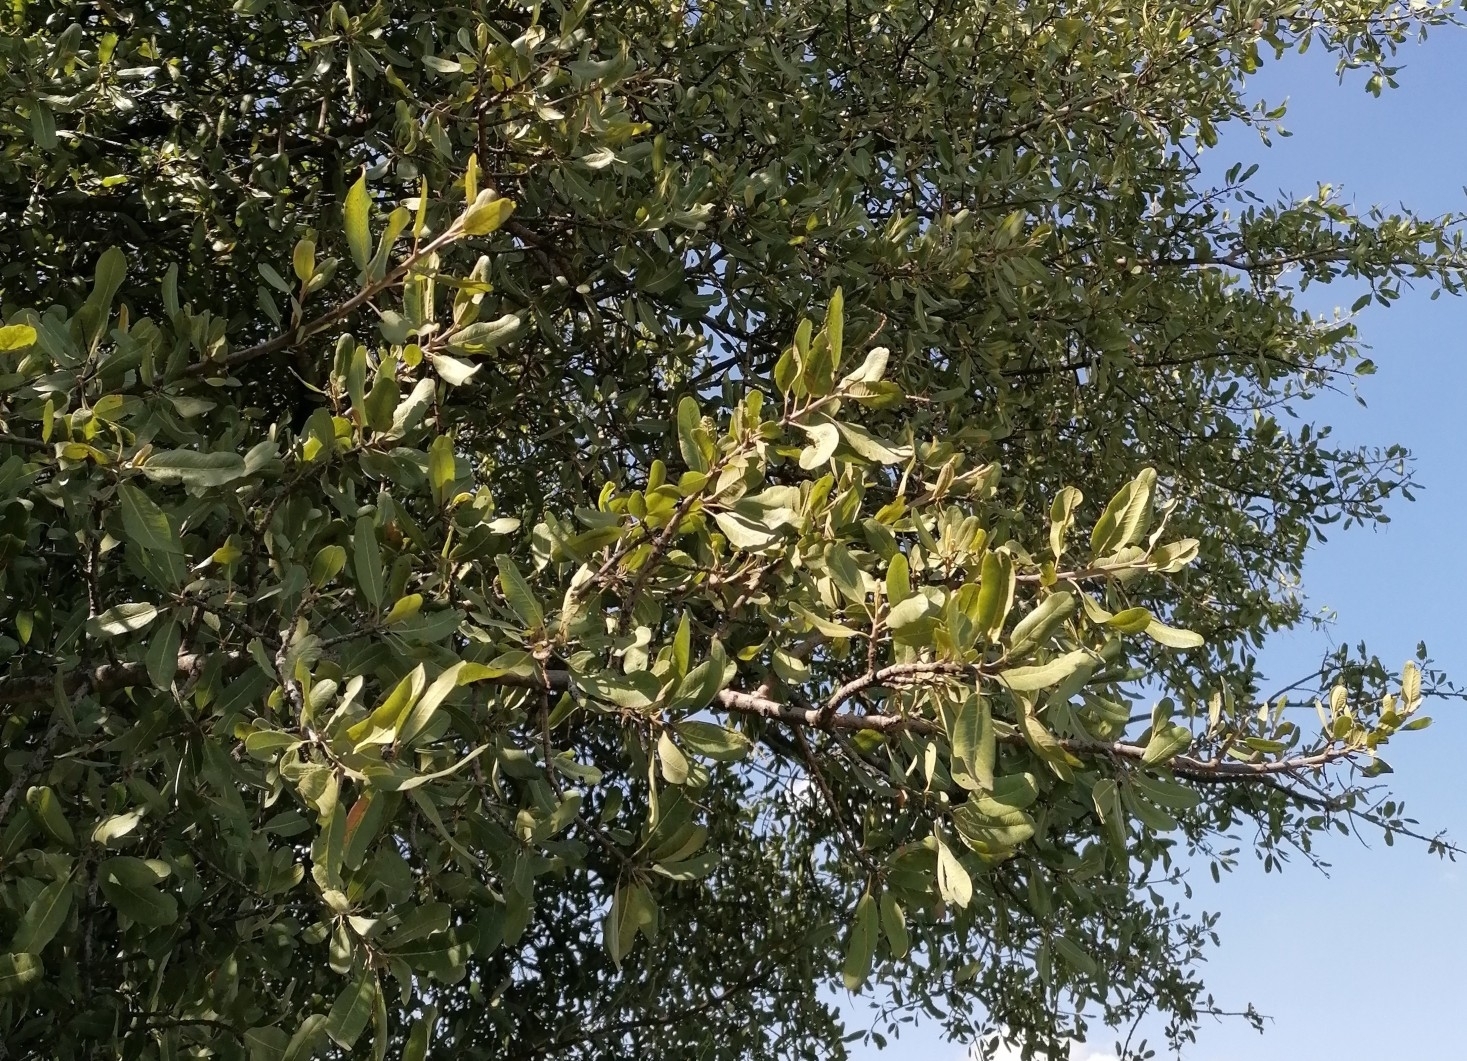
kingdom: Plantae
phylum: Tracheophyta
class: Magnoliopsida
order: Sapindales
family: Sapindaceae
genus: Pappea
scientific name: Pappea capensis
